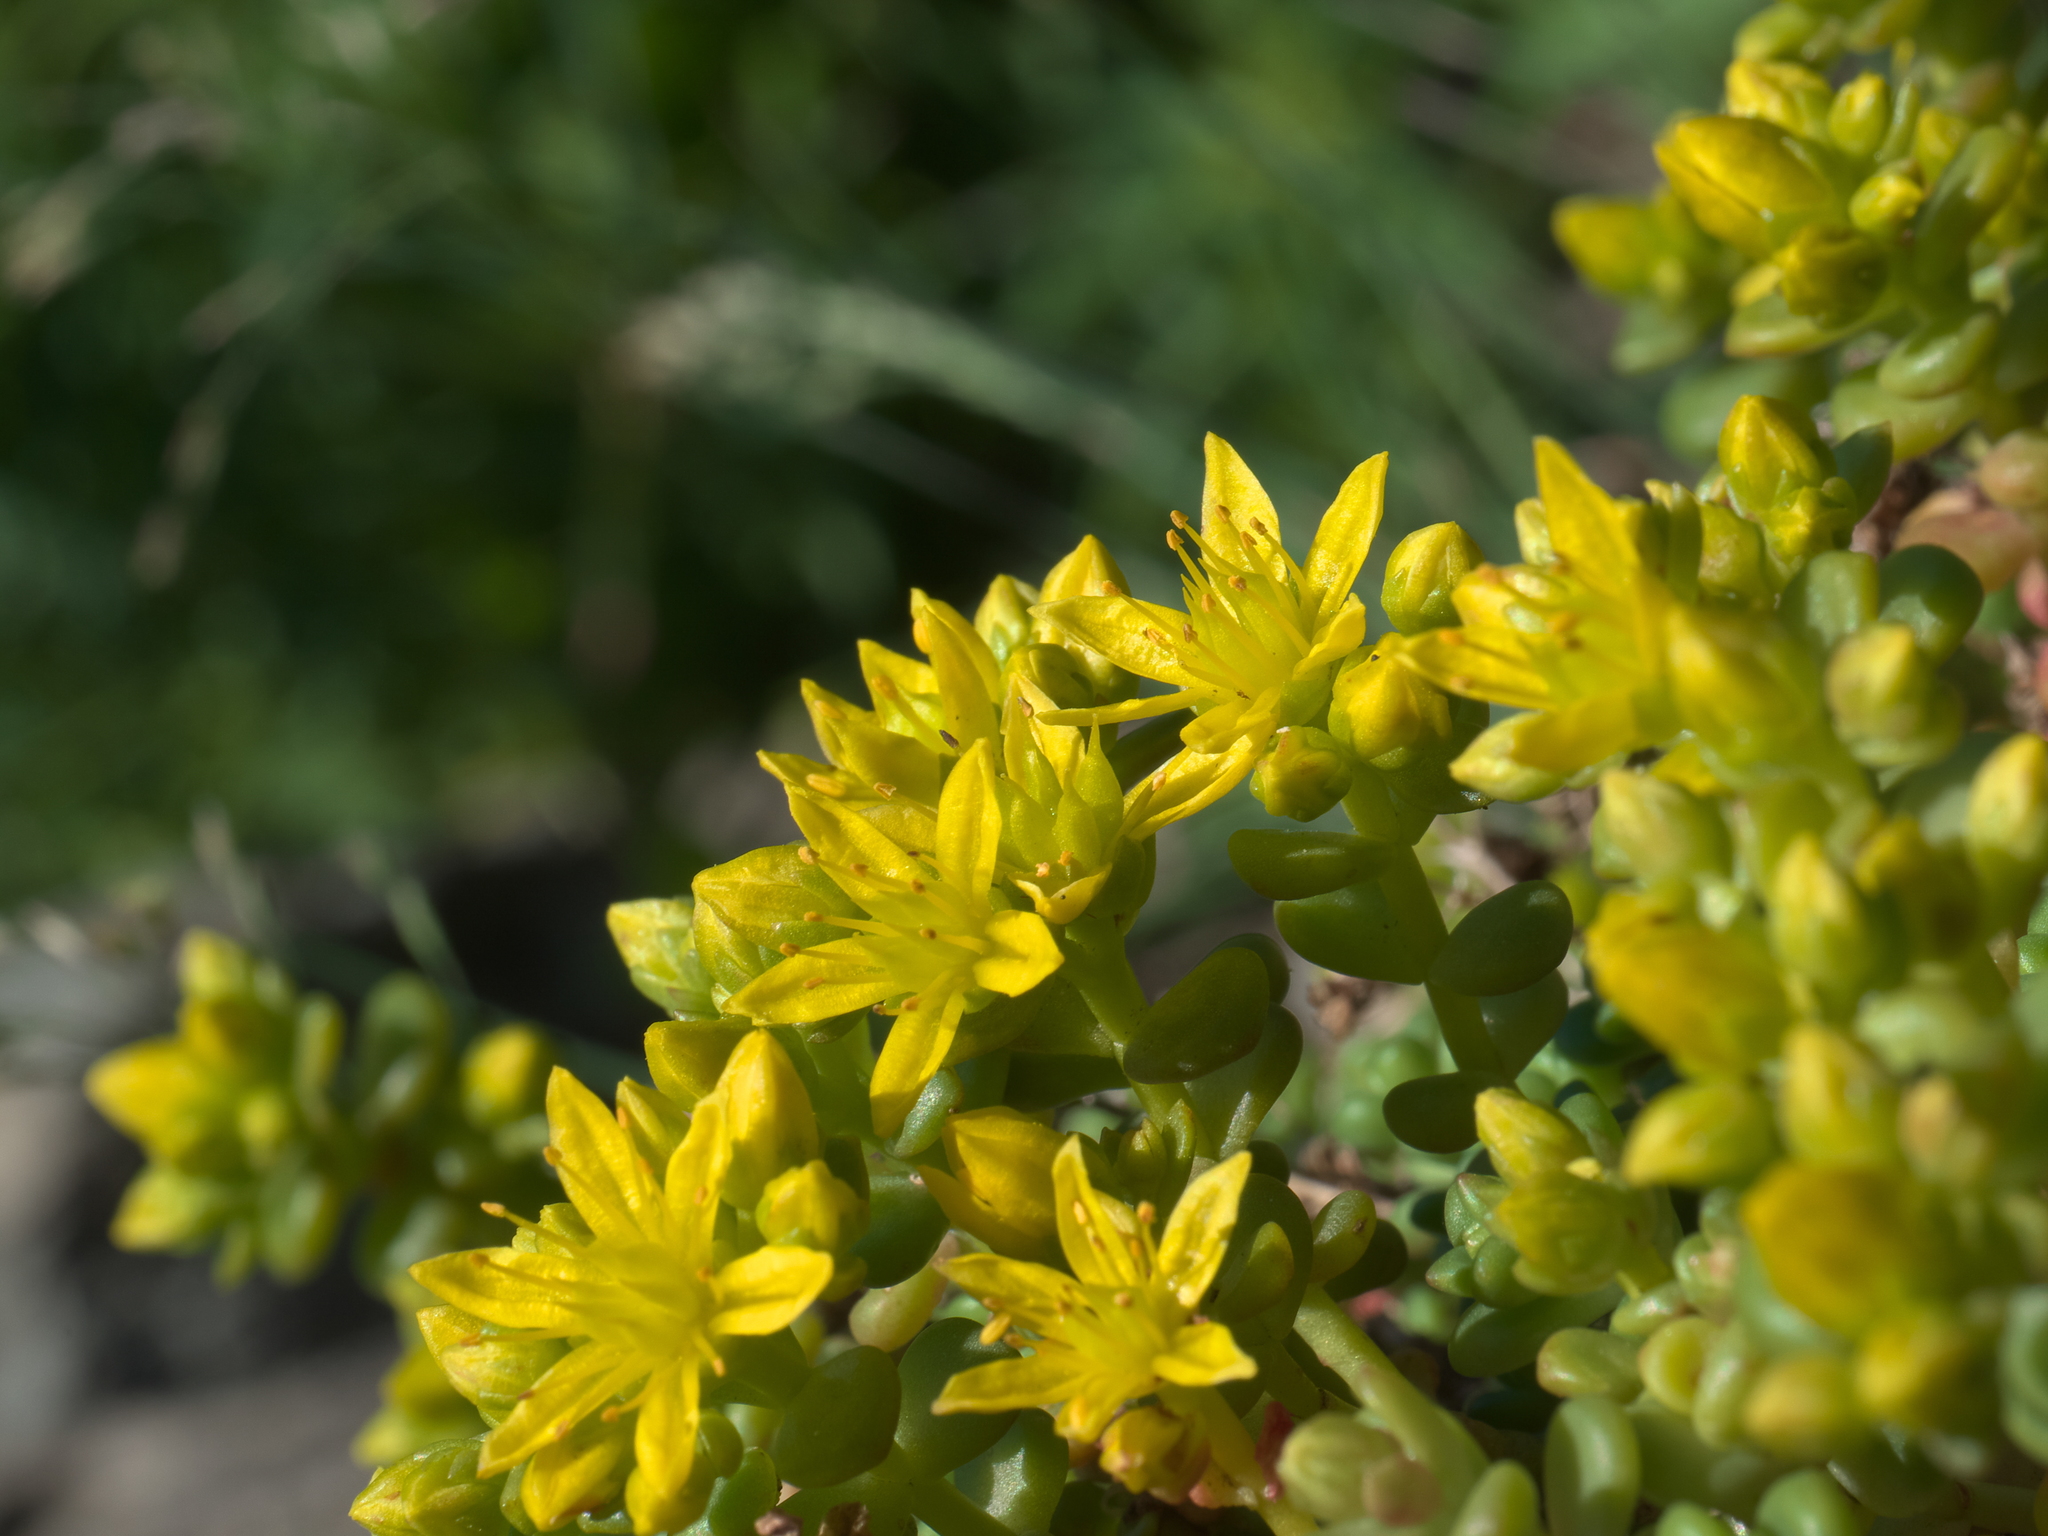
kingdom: Plantae
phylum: Tracheophyta
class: Magnoliopsida
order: Saxifragales
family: Crassulaceae
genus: Sedum
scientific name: Sedum divergens
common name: Cascade stonecrop
